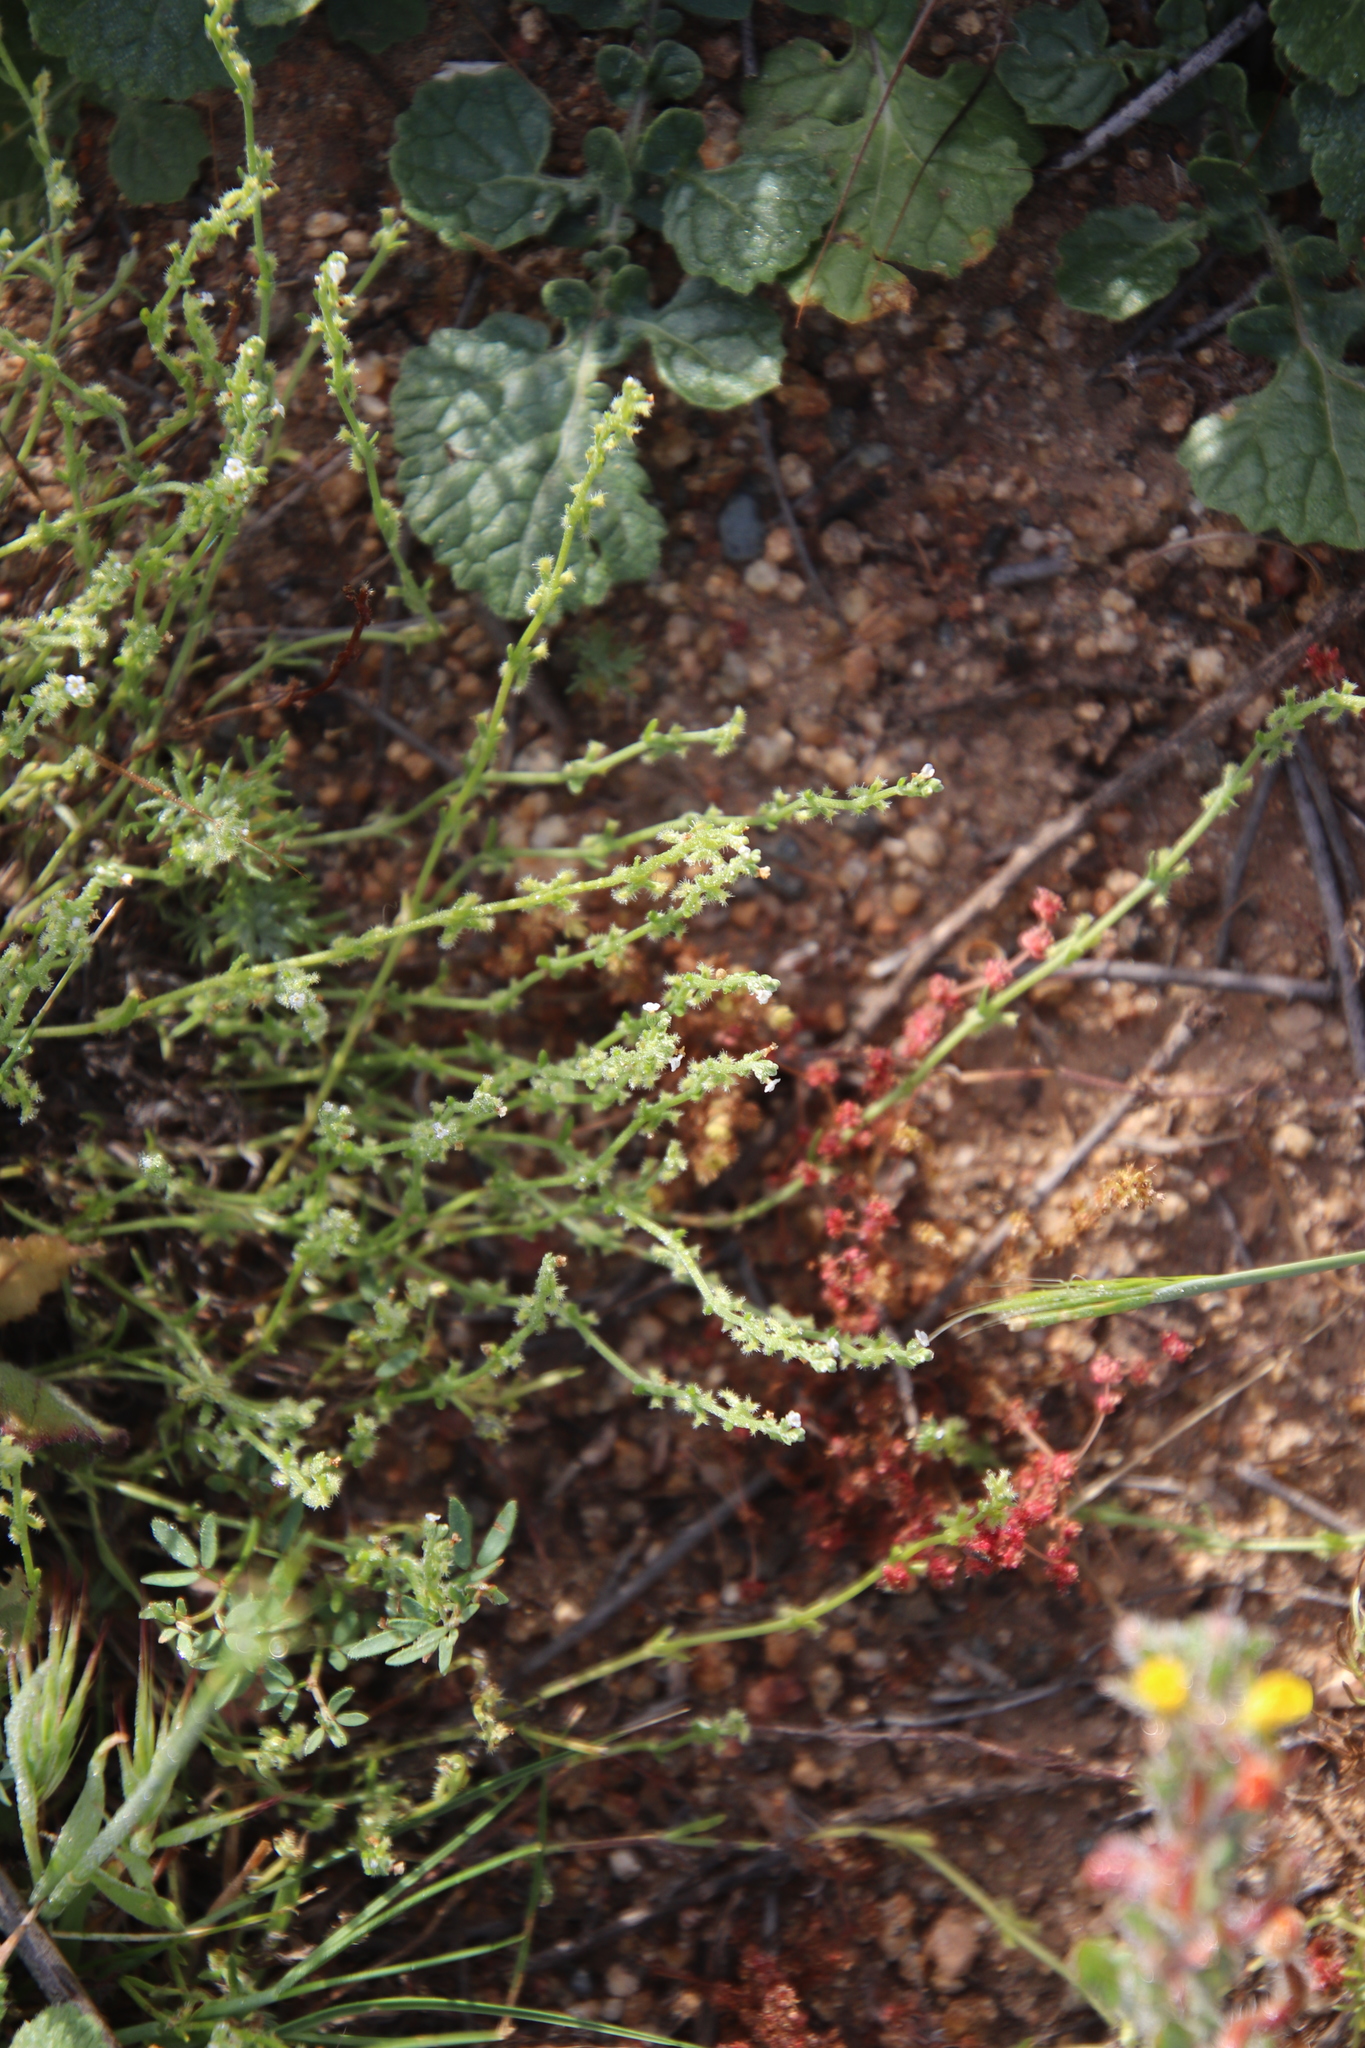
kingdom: Plantae
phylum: Tracheophyta
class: Magnoliopsida
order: Boraginales
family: Boraginaceae
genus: Pectocarya
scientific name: Pectocarya linearis
